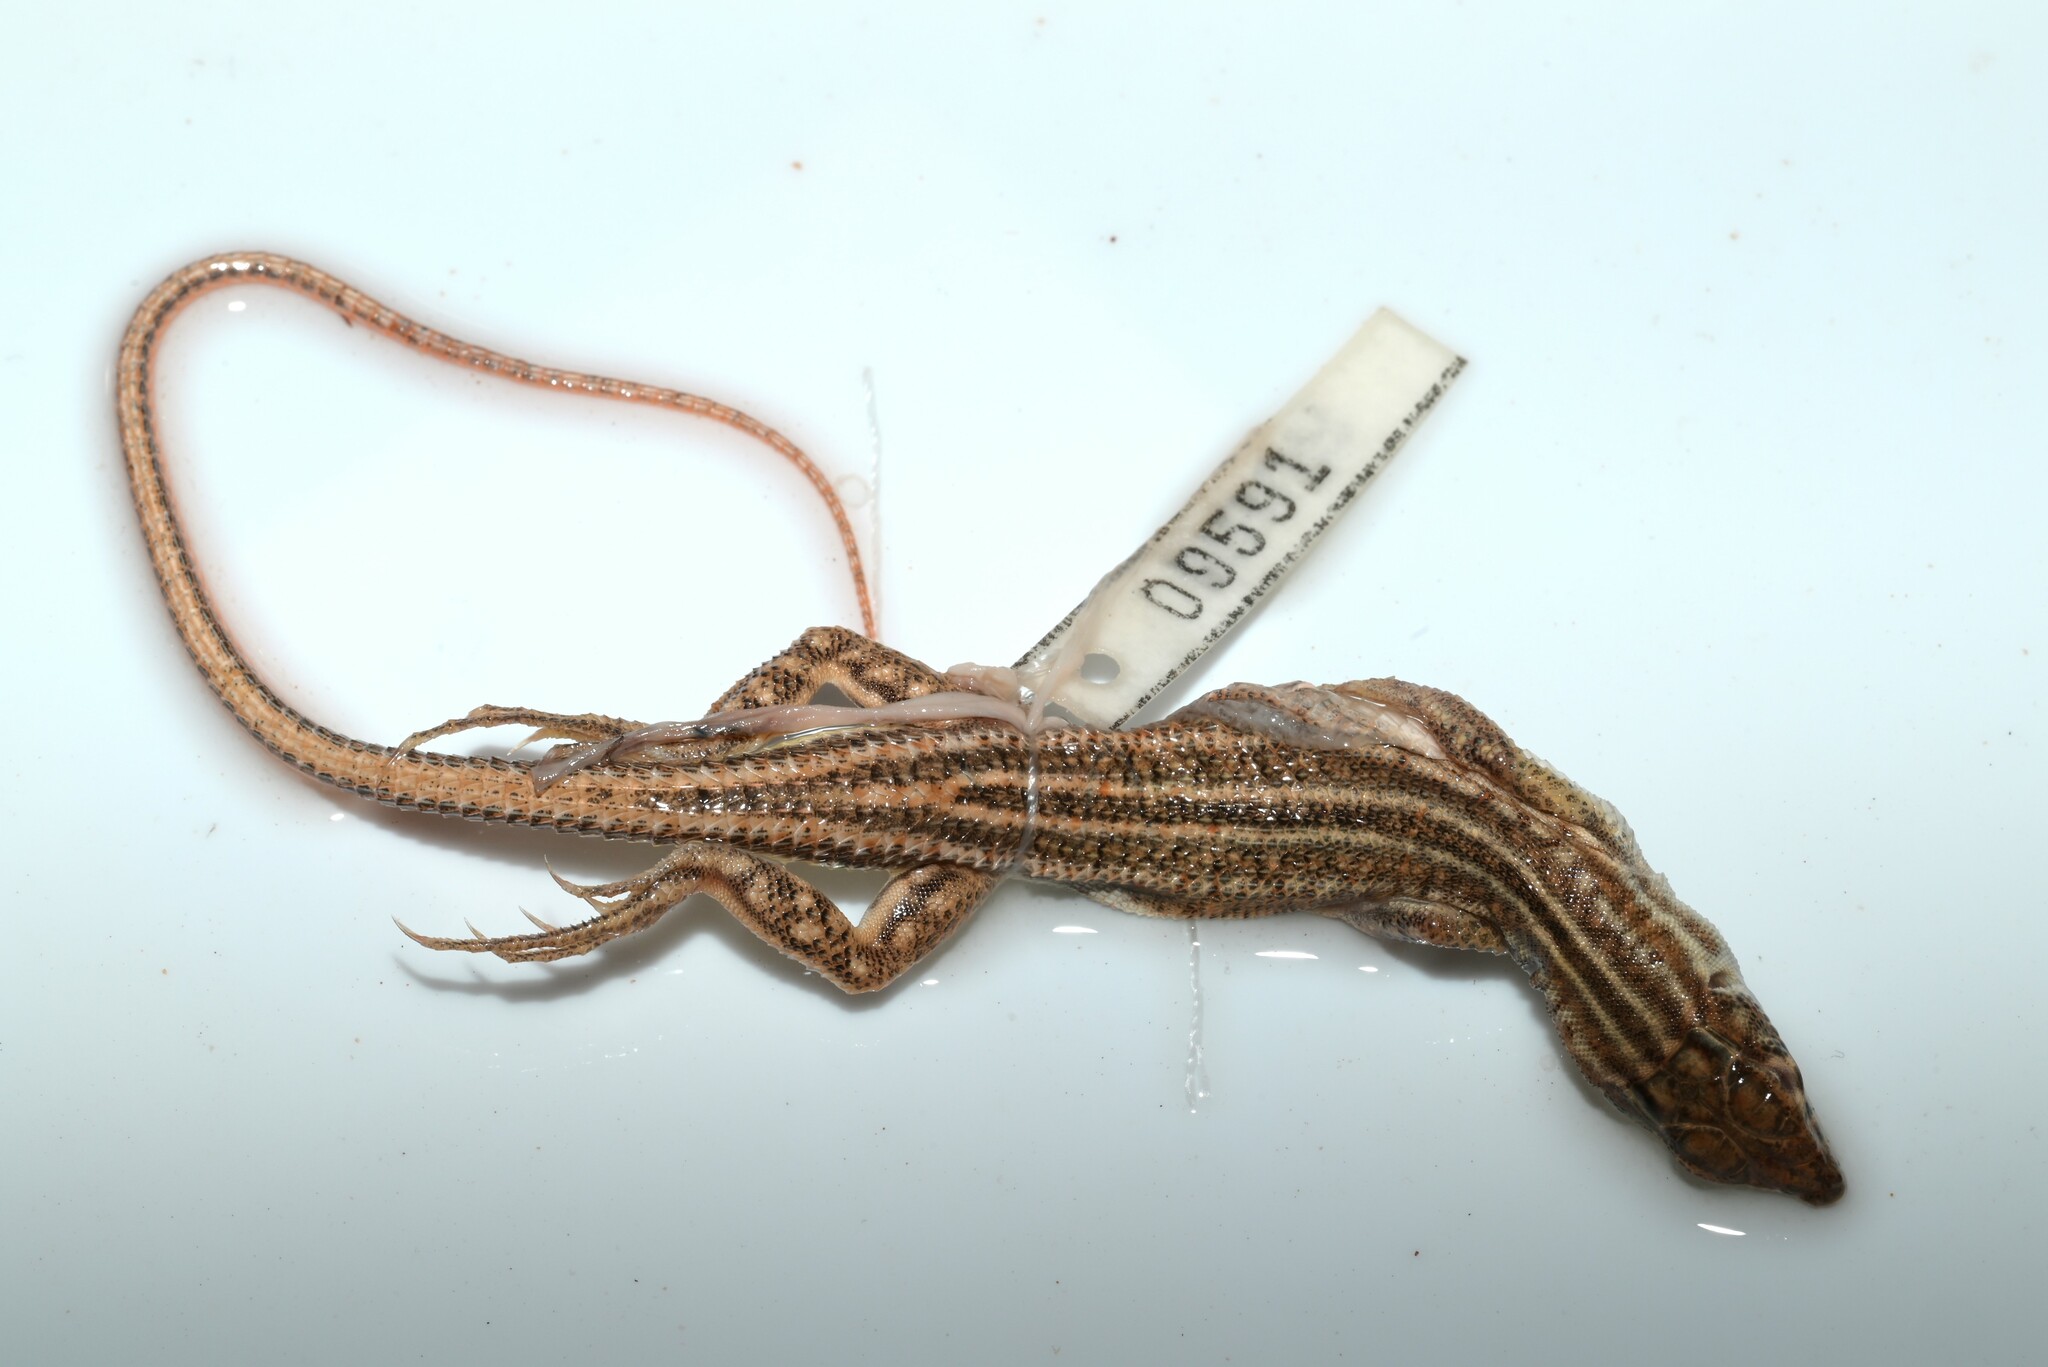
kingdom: Animalia
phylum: Chordata
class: Squamata
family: Lacertidae
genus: Acanthodactylus
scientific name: Acanthodactylus boskianus
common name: Bosc’s fringe-toed lizard
